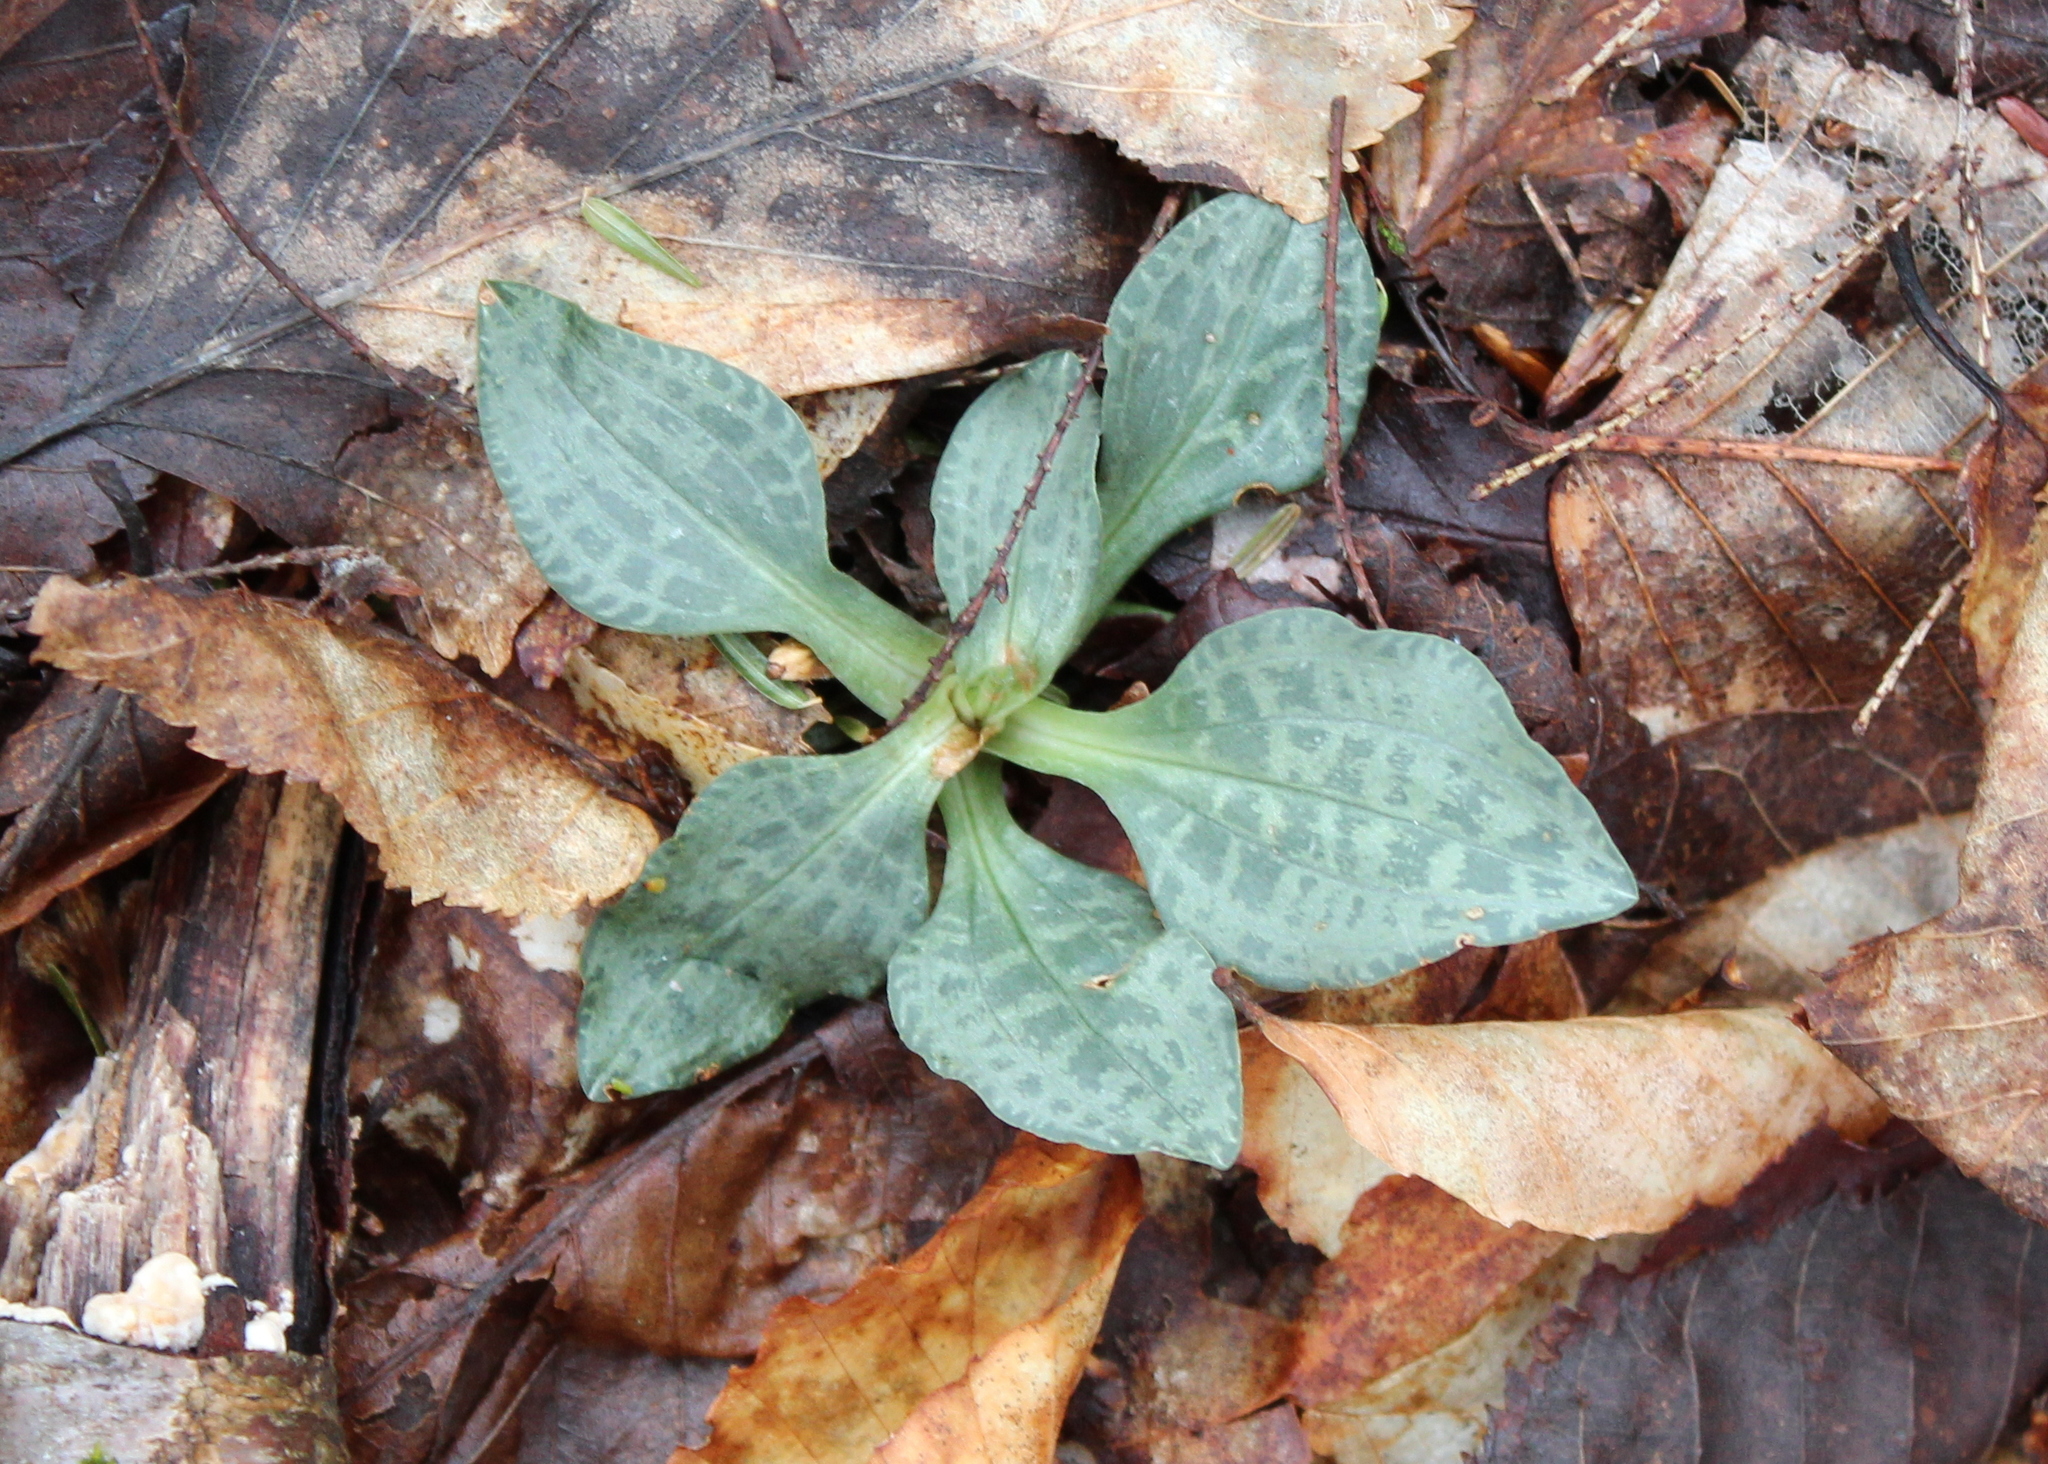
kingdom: Plantae
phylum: Tracheophyta
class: Liliopsida
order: Asparagales
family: Orchidaceae
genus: Goodyera
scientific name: Goodyera tesselata
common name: Checkered rattlesnake-plantain
